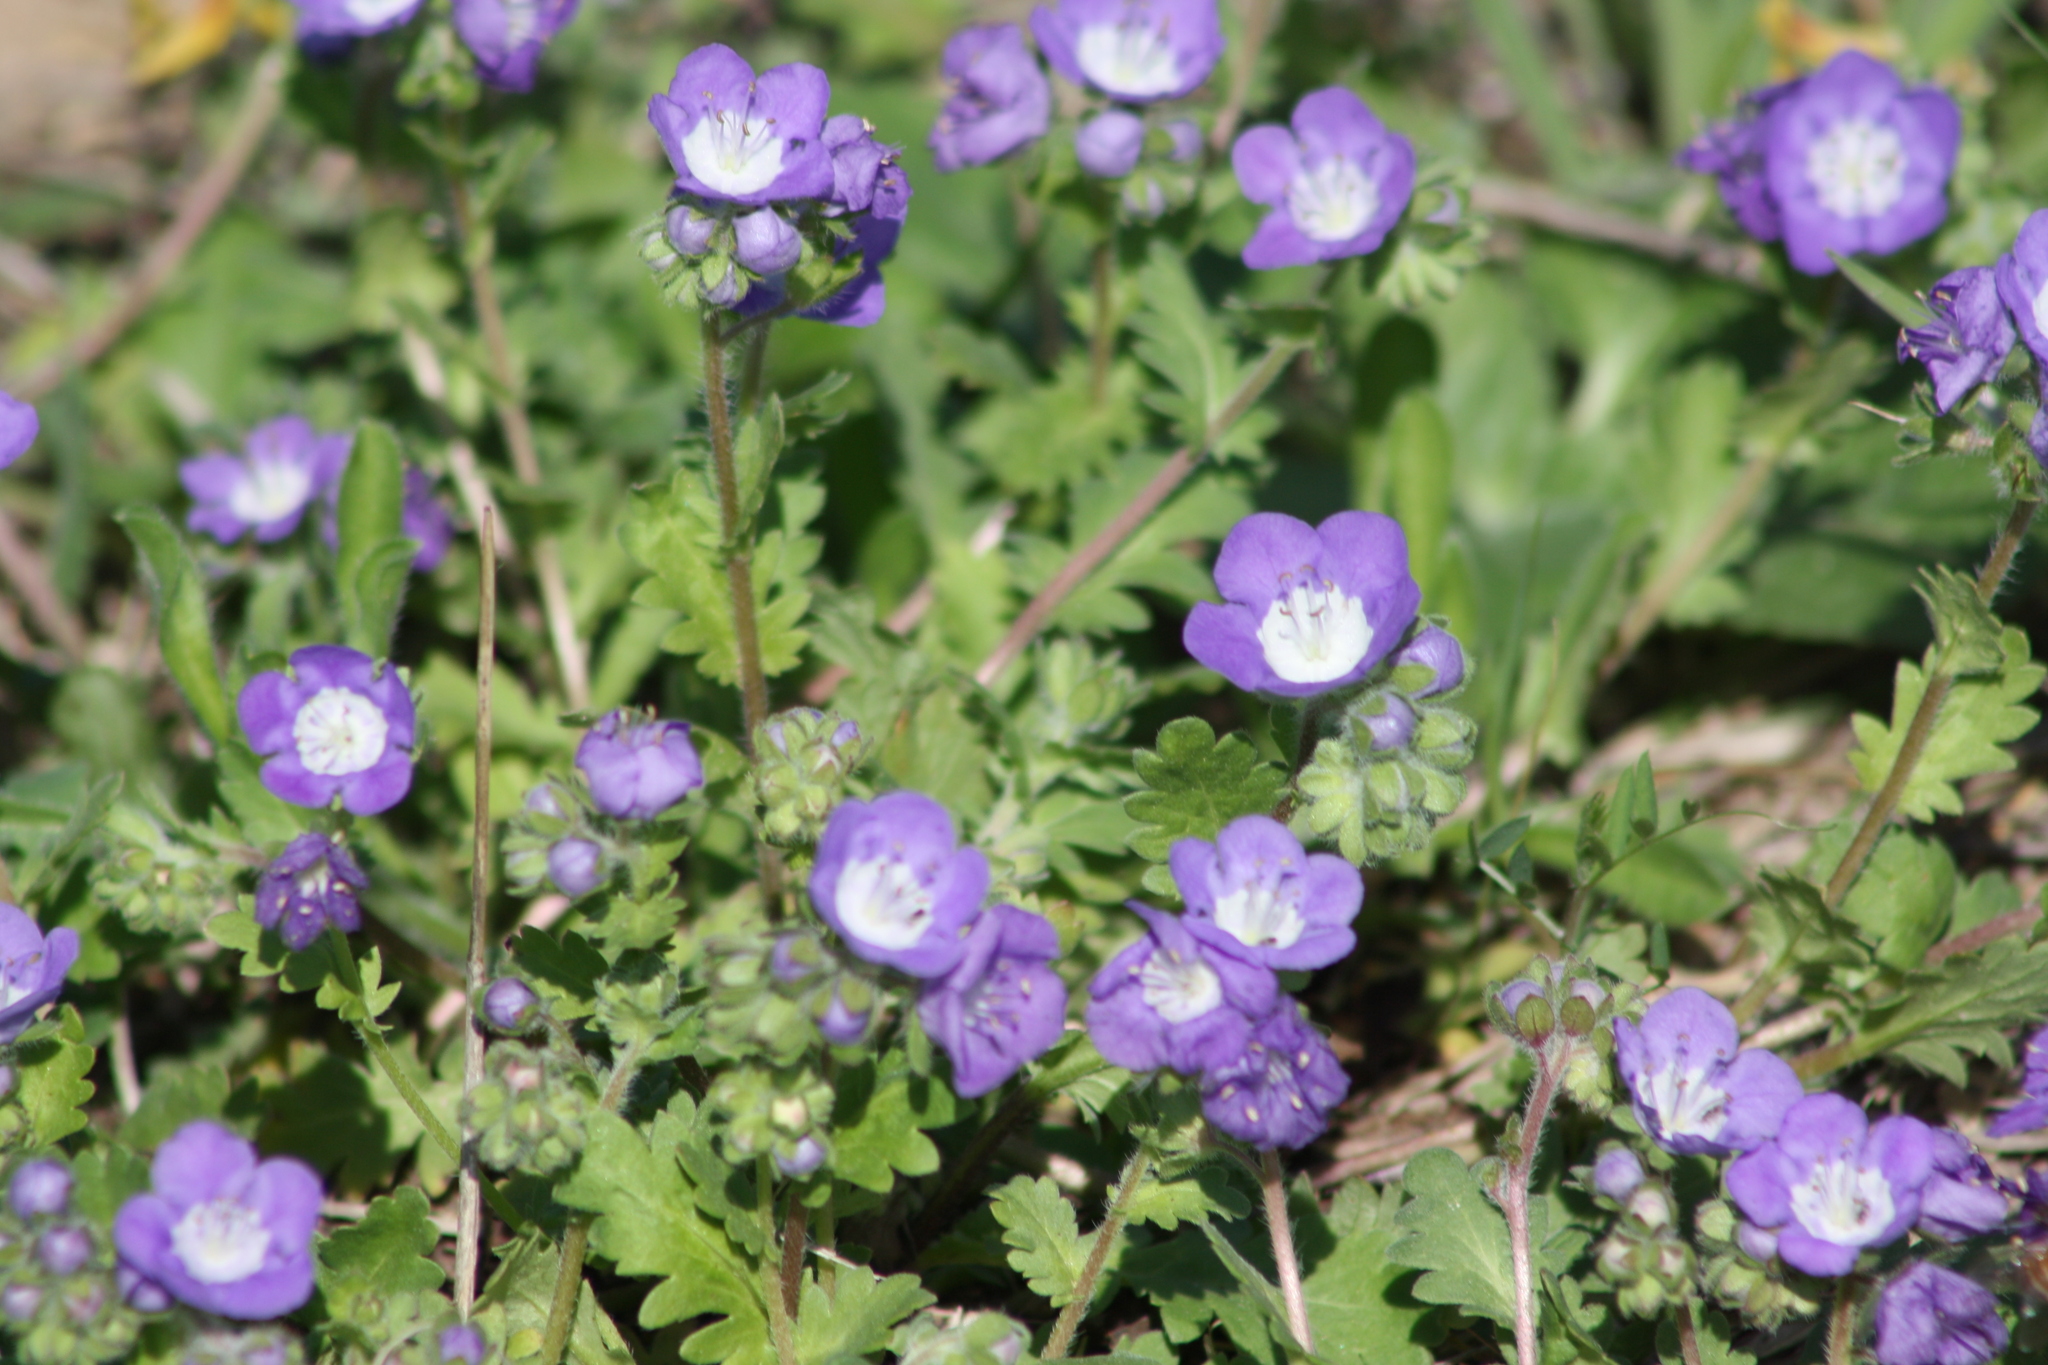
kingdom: Plantae
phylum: Tracheophyta
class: Magnoliopsida
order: Boraginales
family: Hydrophyllaceae
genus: Phacelia
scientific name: Phacelia patuliflora
